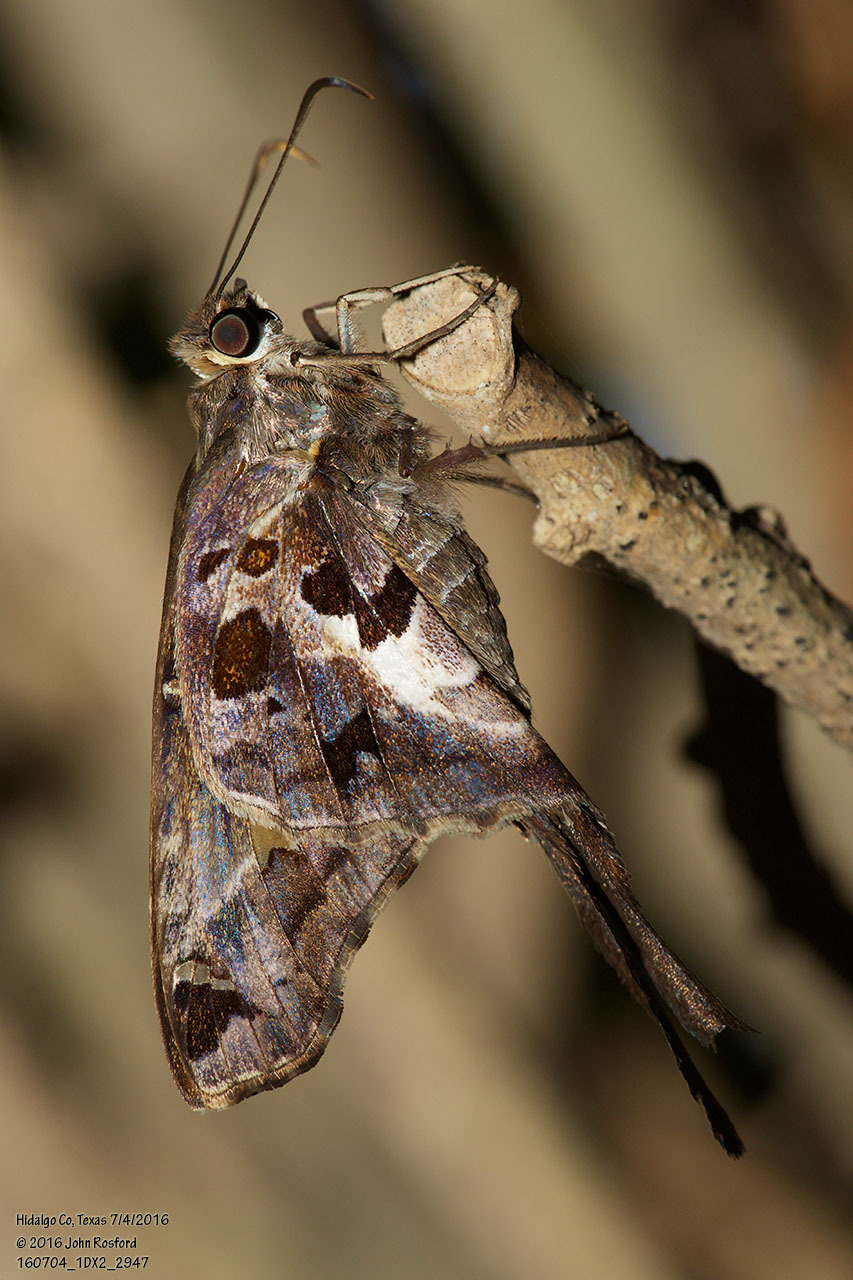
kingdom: Animalia
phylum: Arthropoda
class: Insecta
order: Lepidoptera
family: Hesperiidae
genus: Chioides
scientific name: Chioides zilpa
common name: Zilpa longtail
